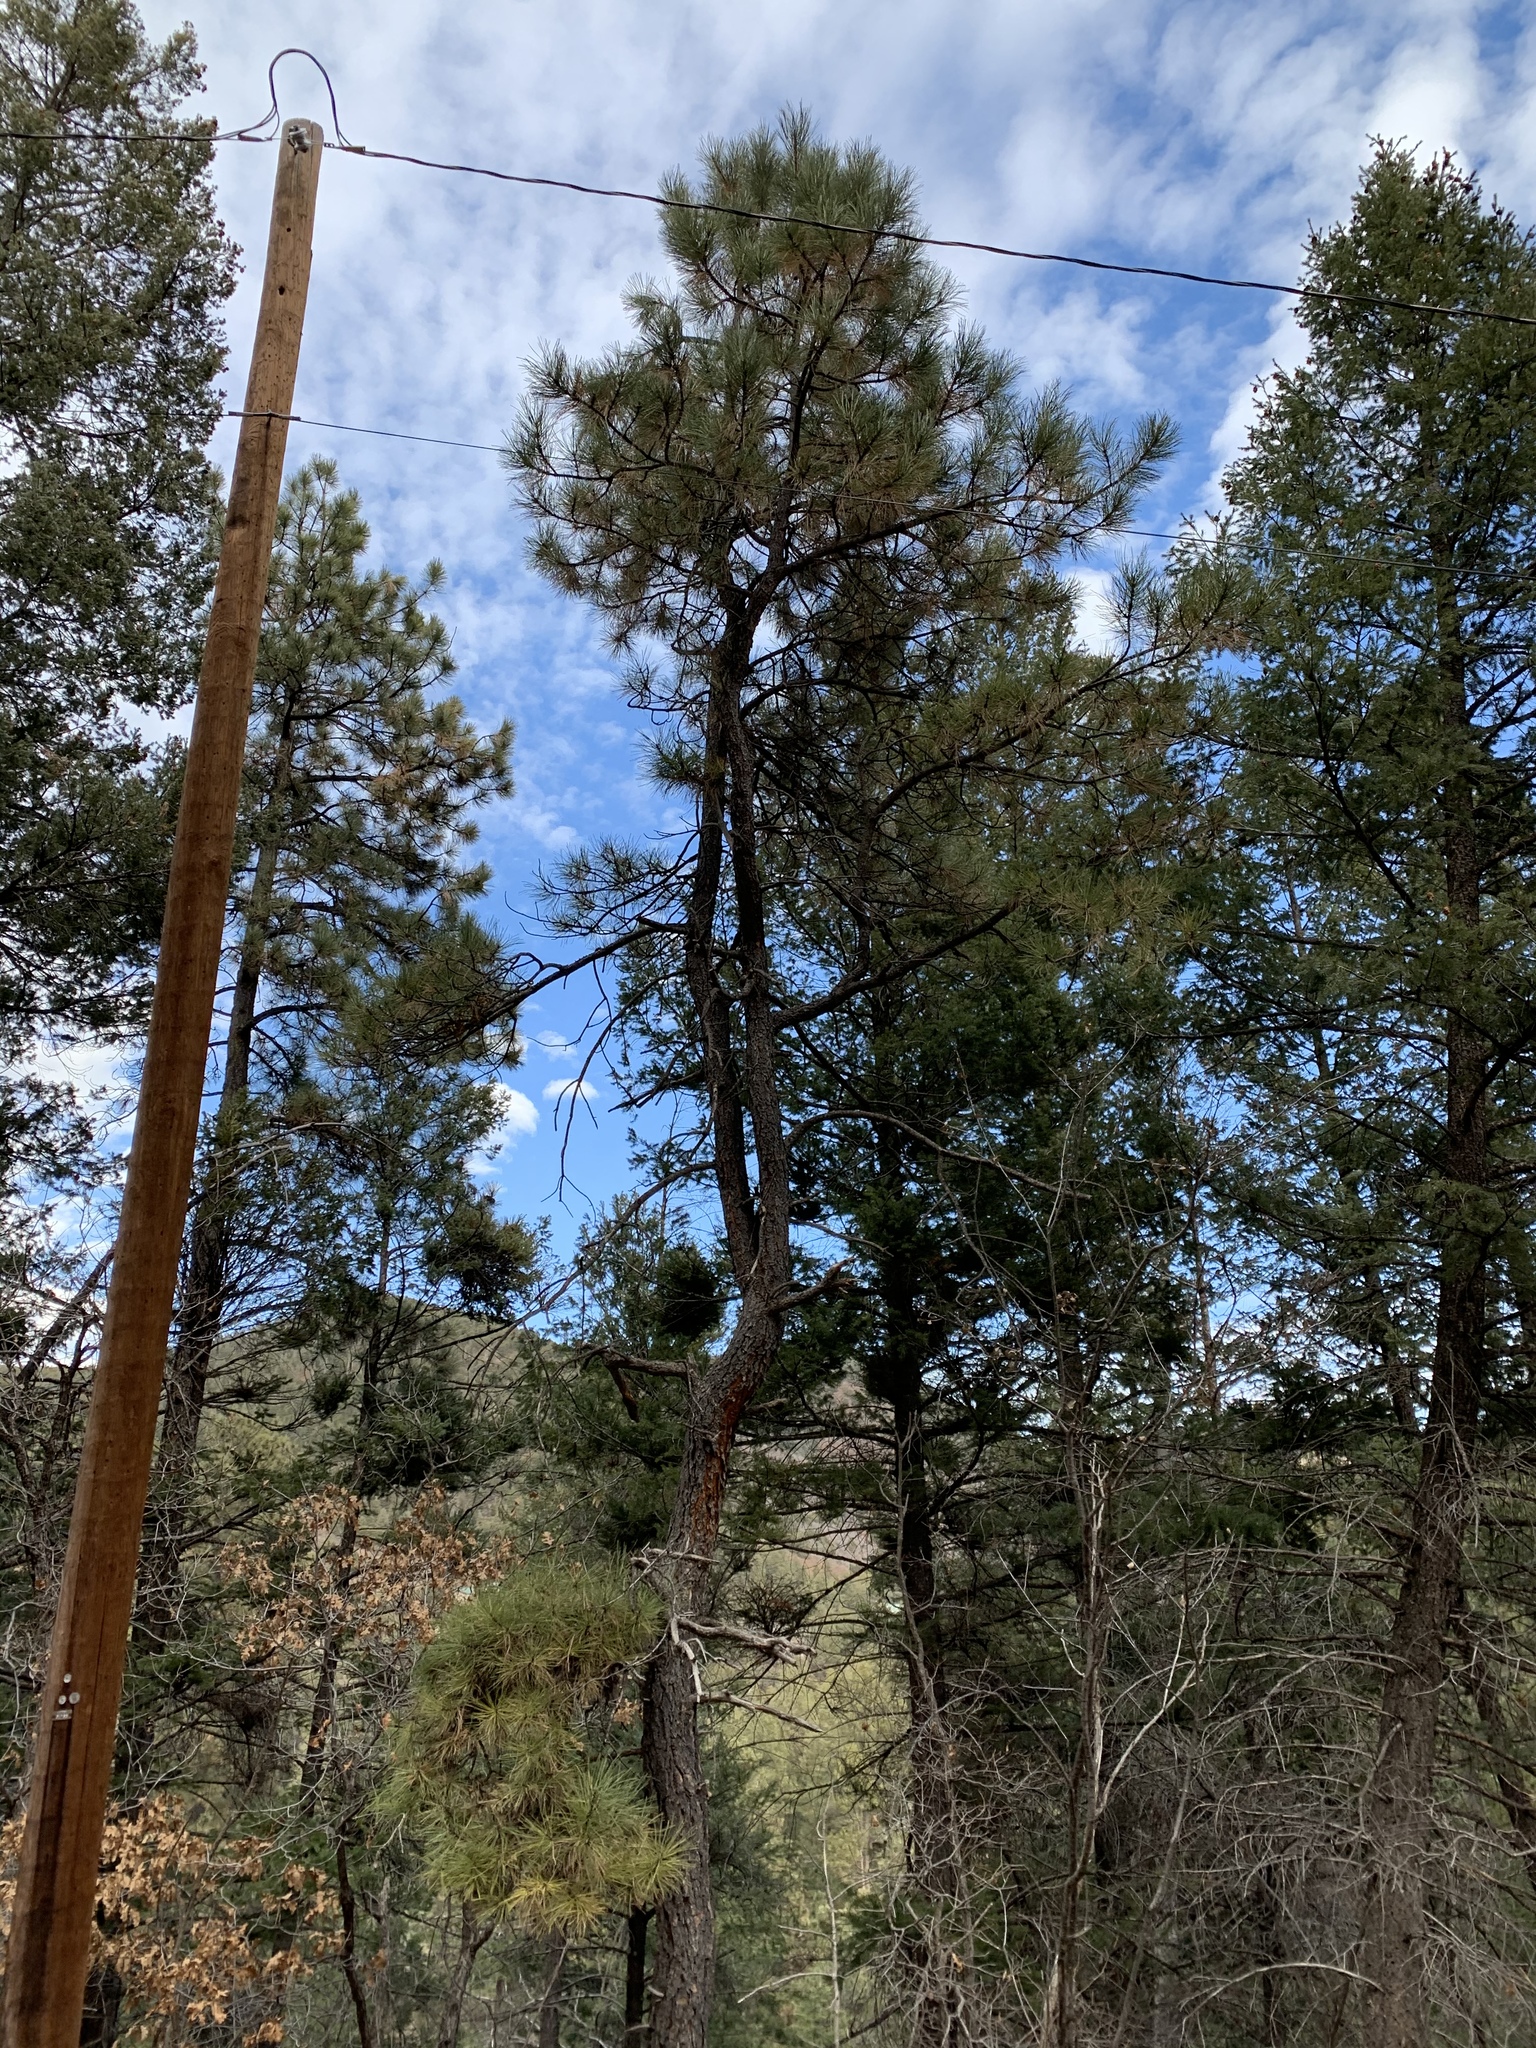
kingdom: Plantae
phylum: Tracheophyta
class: Pinopsida
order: Pinales
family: Pinaceae
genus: Pinus
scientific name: Pinus ponderosa
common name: Western yellow-pine
